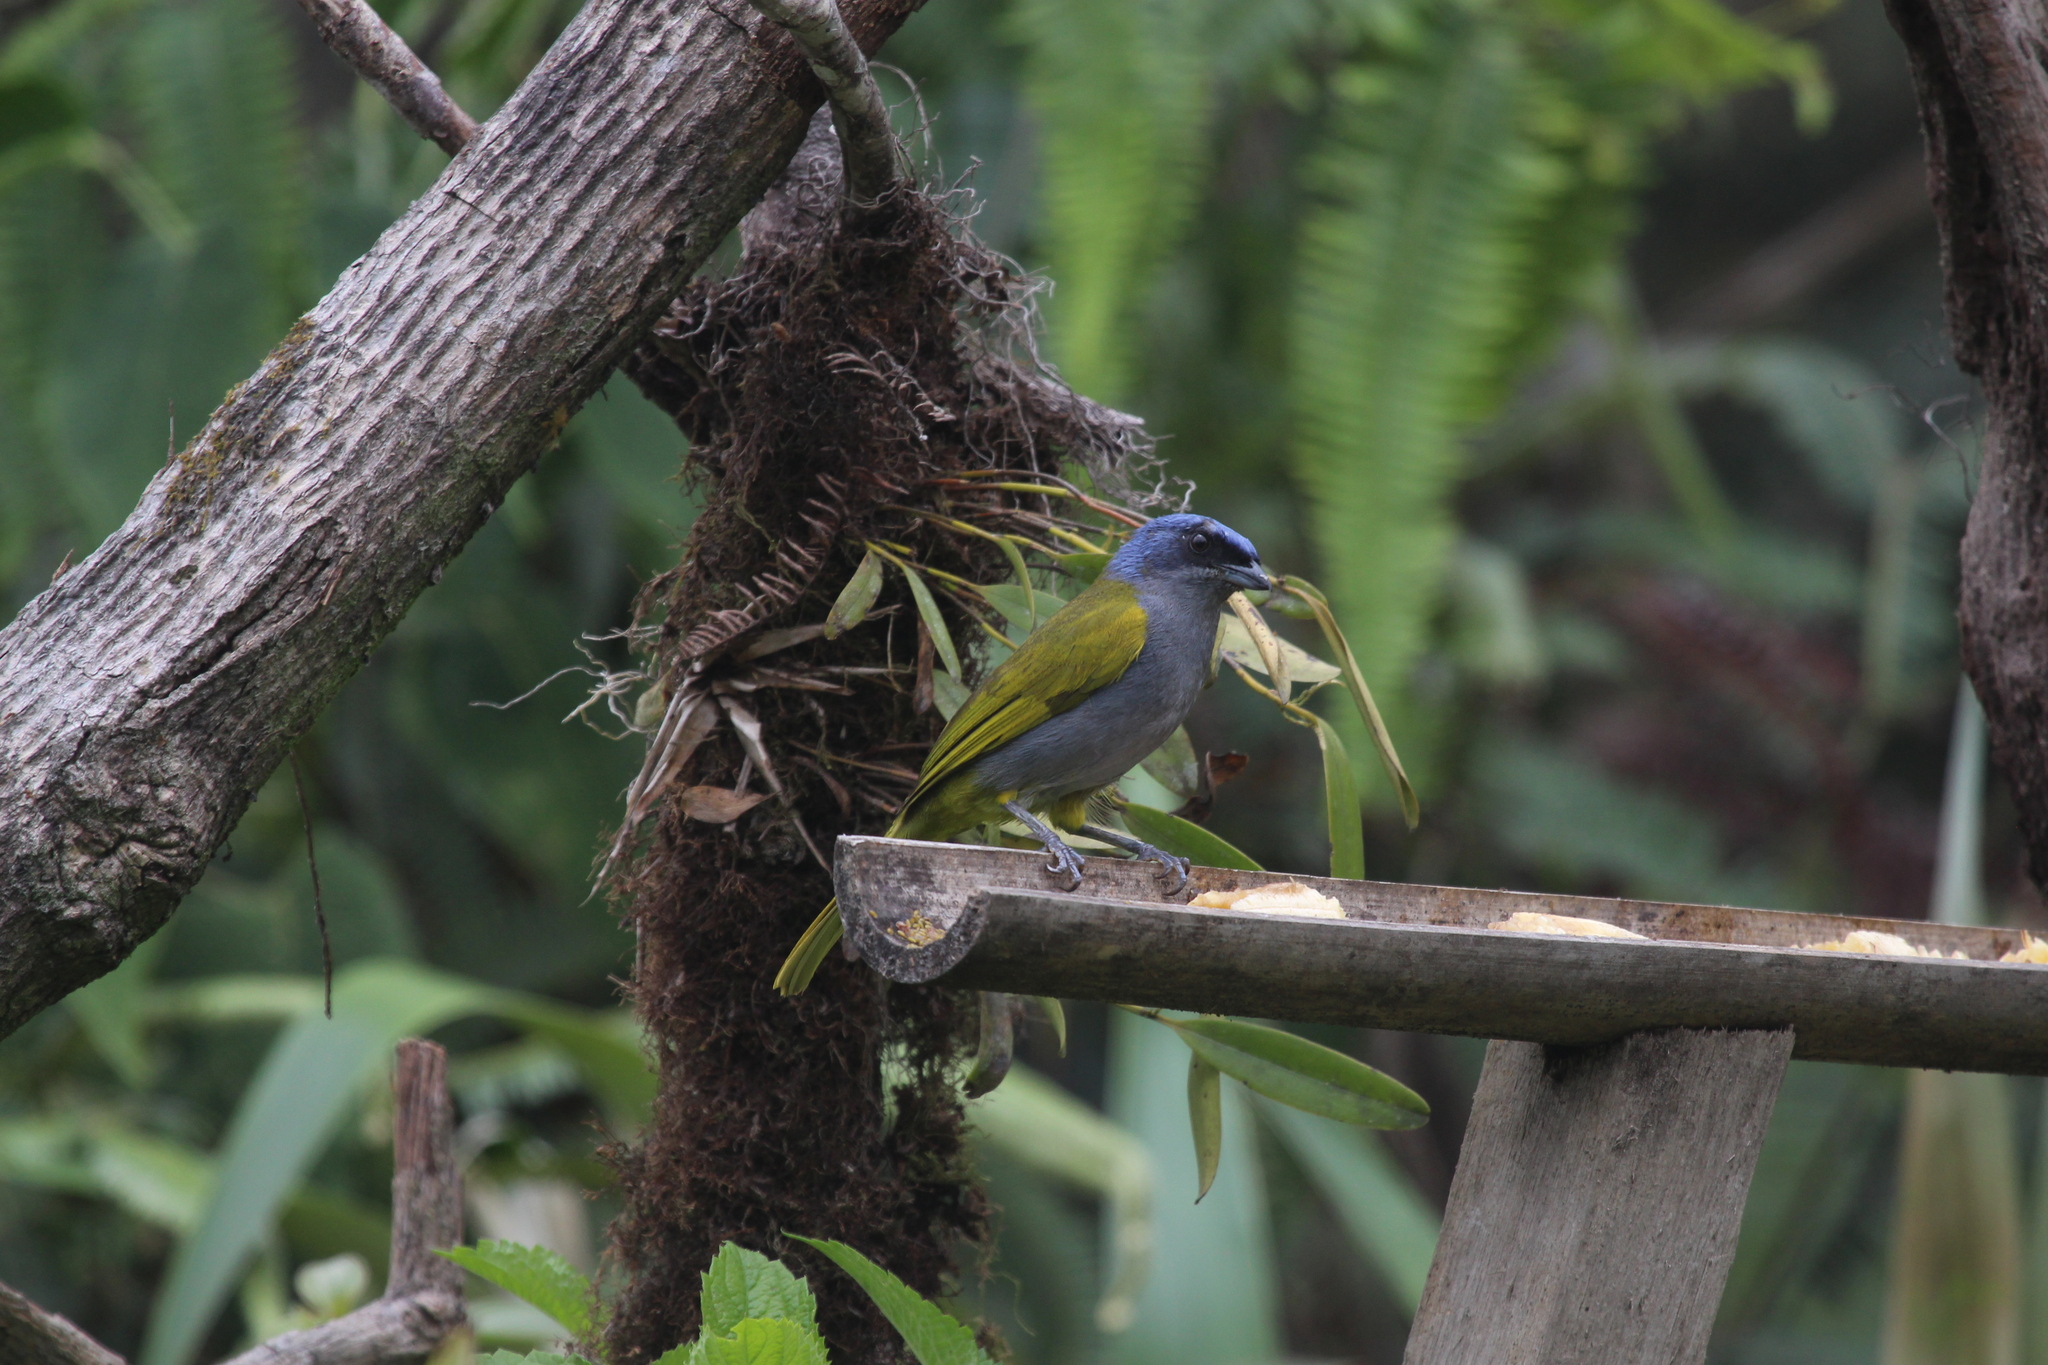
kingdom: Animalia
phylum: Chordata
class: Aves
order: Passeriformes
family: Thraupidae
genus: Sporathraupis
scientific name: Sporathraupis cyanocephala
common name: Blue-capped tanager
